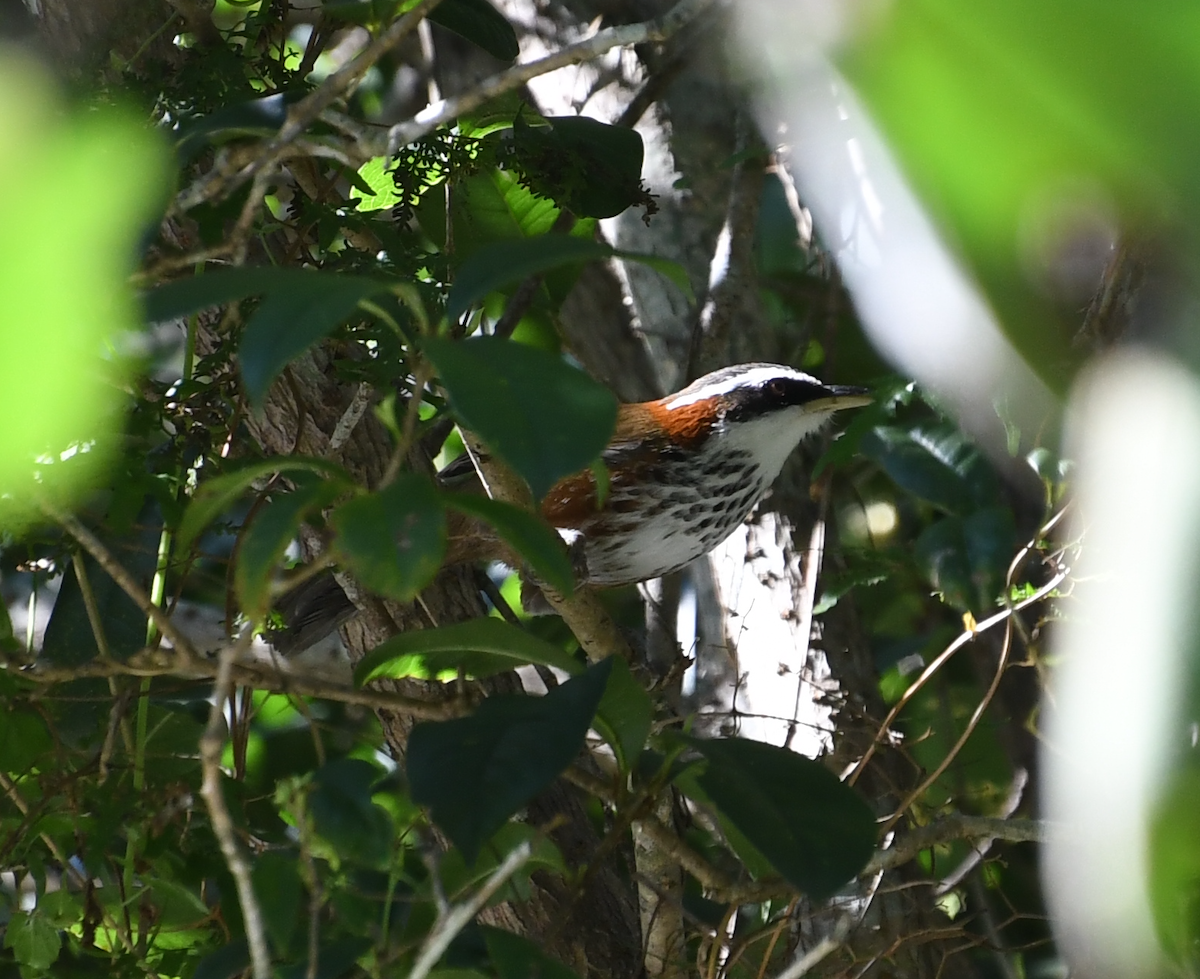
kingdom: Animalia
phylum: Chordata
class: Aves
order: Passeriformes
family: Timaliidae
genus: Pomatorhinus
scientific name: Pomatorhinus musicus
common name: Taiwan scimitar-babbler
